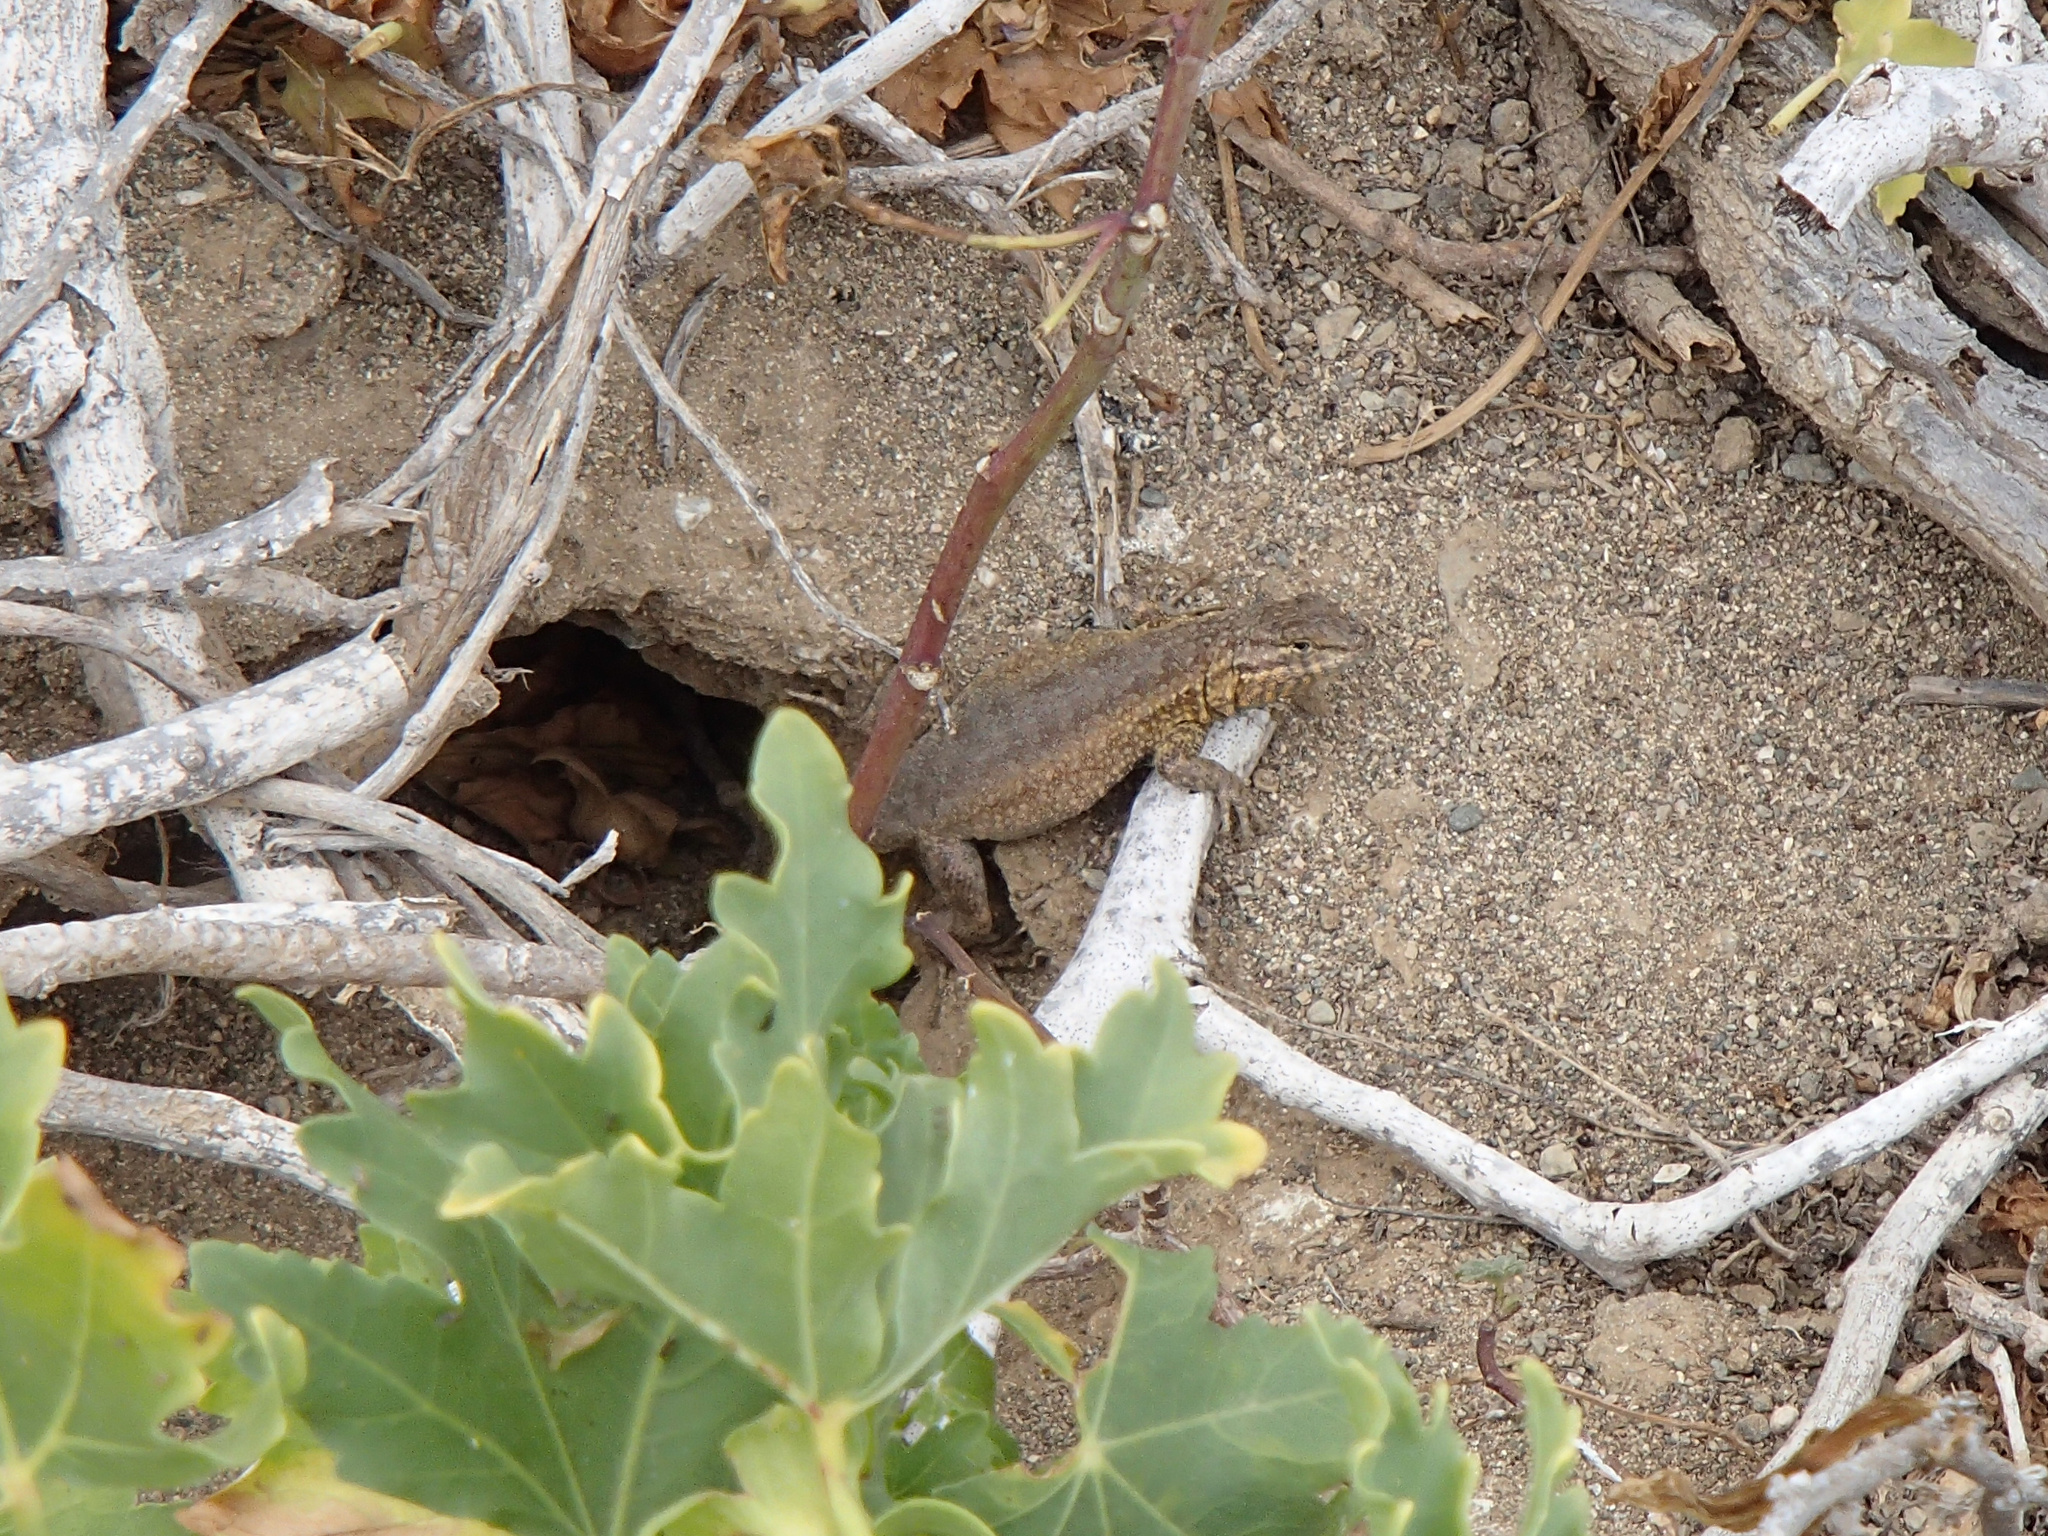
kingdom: Animalia
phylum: Chordata
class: Squamata
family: Phrynosomatidae
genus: Uta
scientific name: Uta stansburiana
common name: Side-blotched lizard
